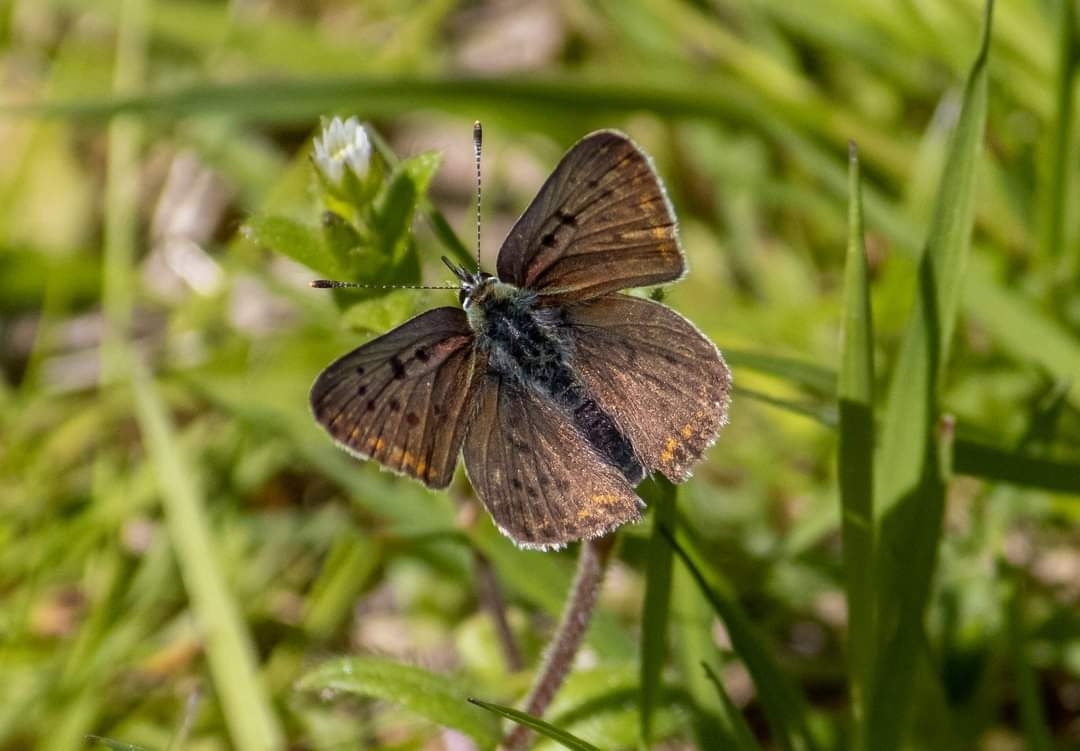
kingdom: Animalia
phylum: Arthropoda
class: Insecta
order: Lepidoptera
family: Lycaenidae
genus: Loweia
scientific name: Loweia tityrus
